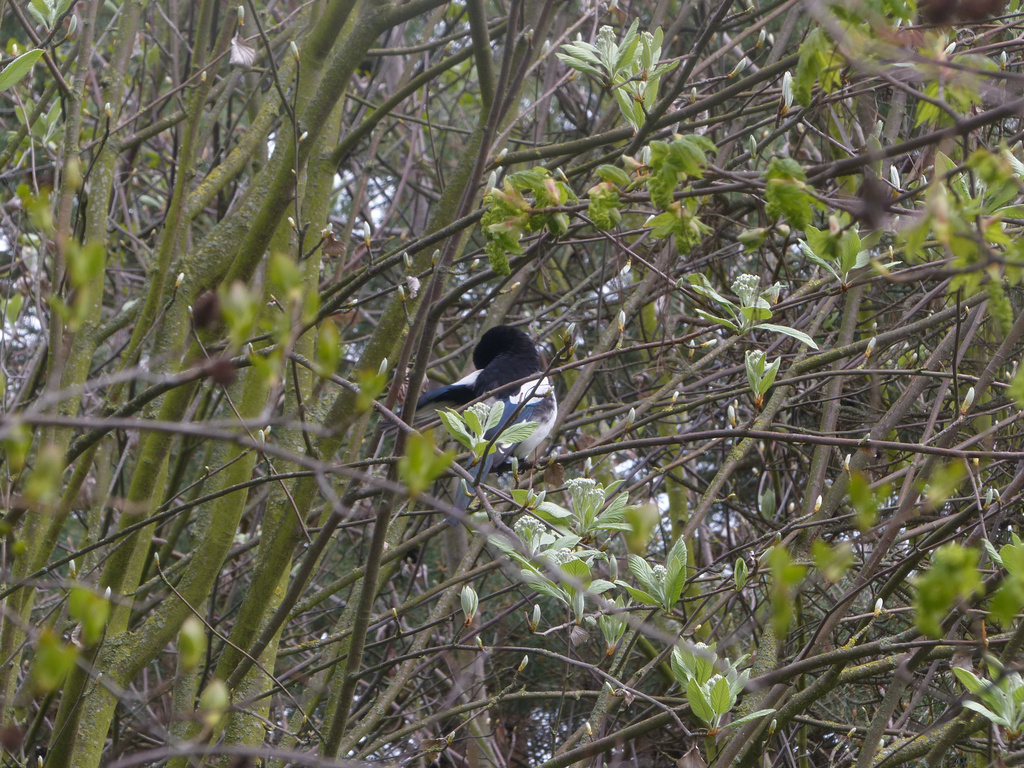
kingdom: Animalia
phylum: Chordata
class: Aves
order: Passeriformes
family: Corvidae
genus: Pica
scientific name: Pica pica
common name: Eurasian magpie
